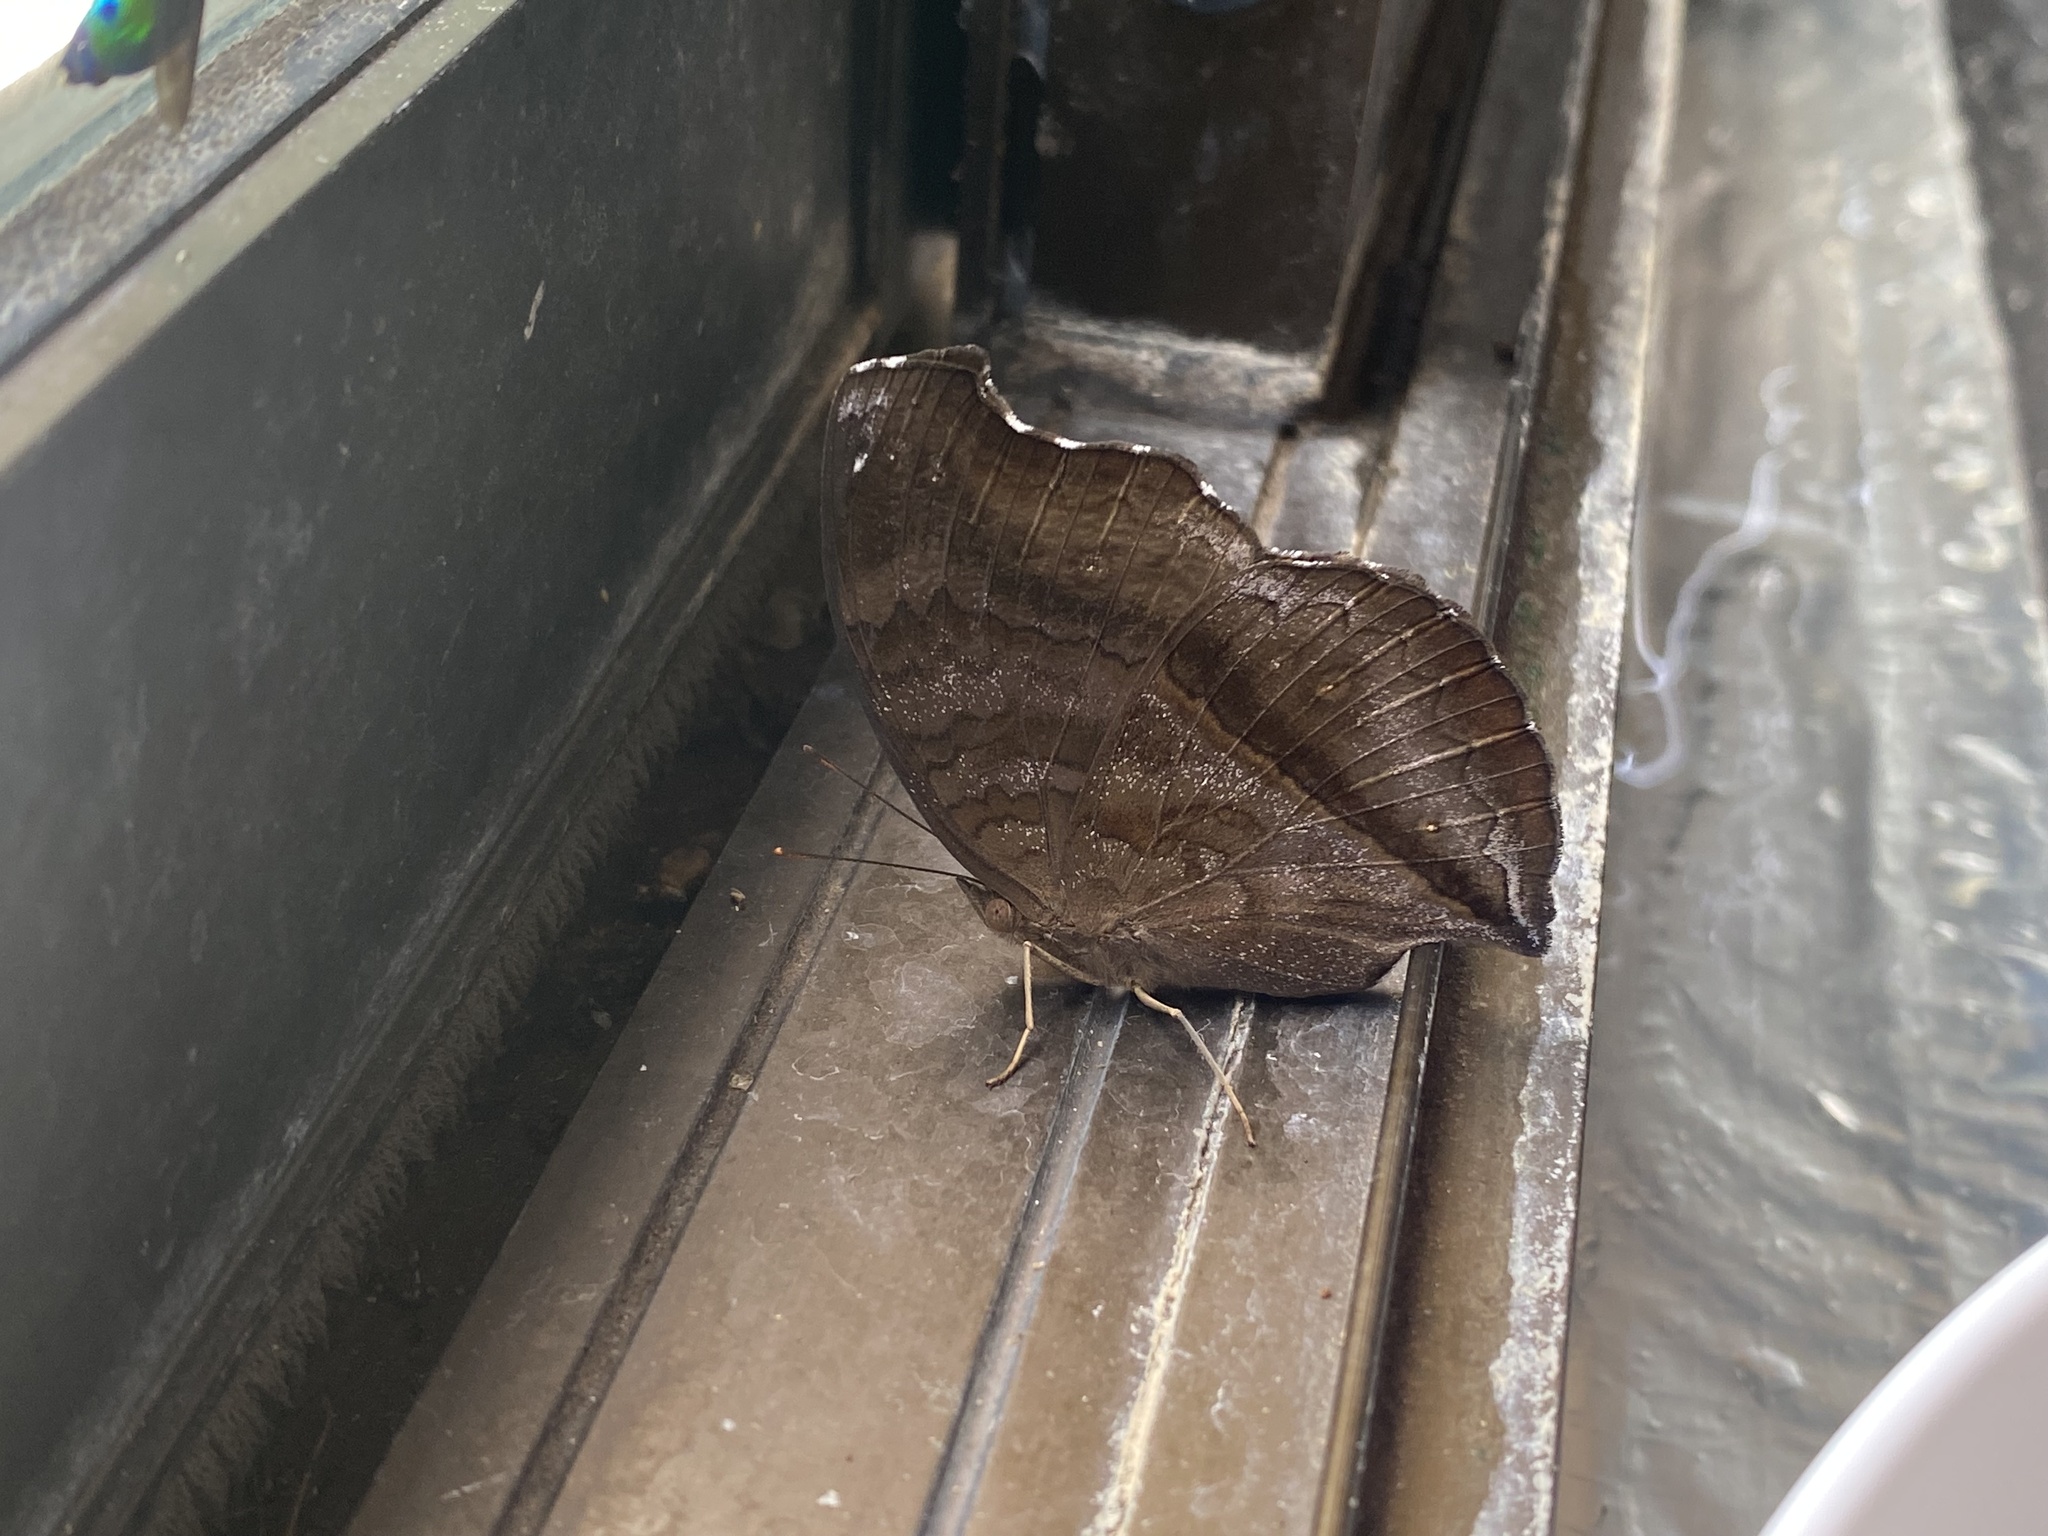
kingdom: Animalia
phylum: Arthropoda
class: Insecta
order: Lepidoptera
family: Nymphalidae
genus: Junonia
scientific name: Junonia iphita
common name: Chocolate pansy
